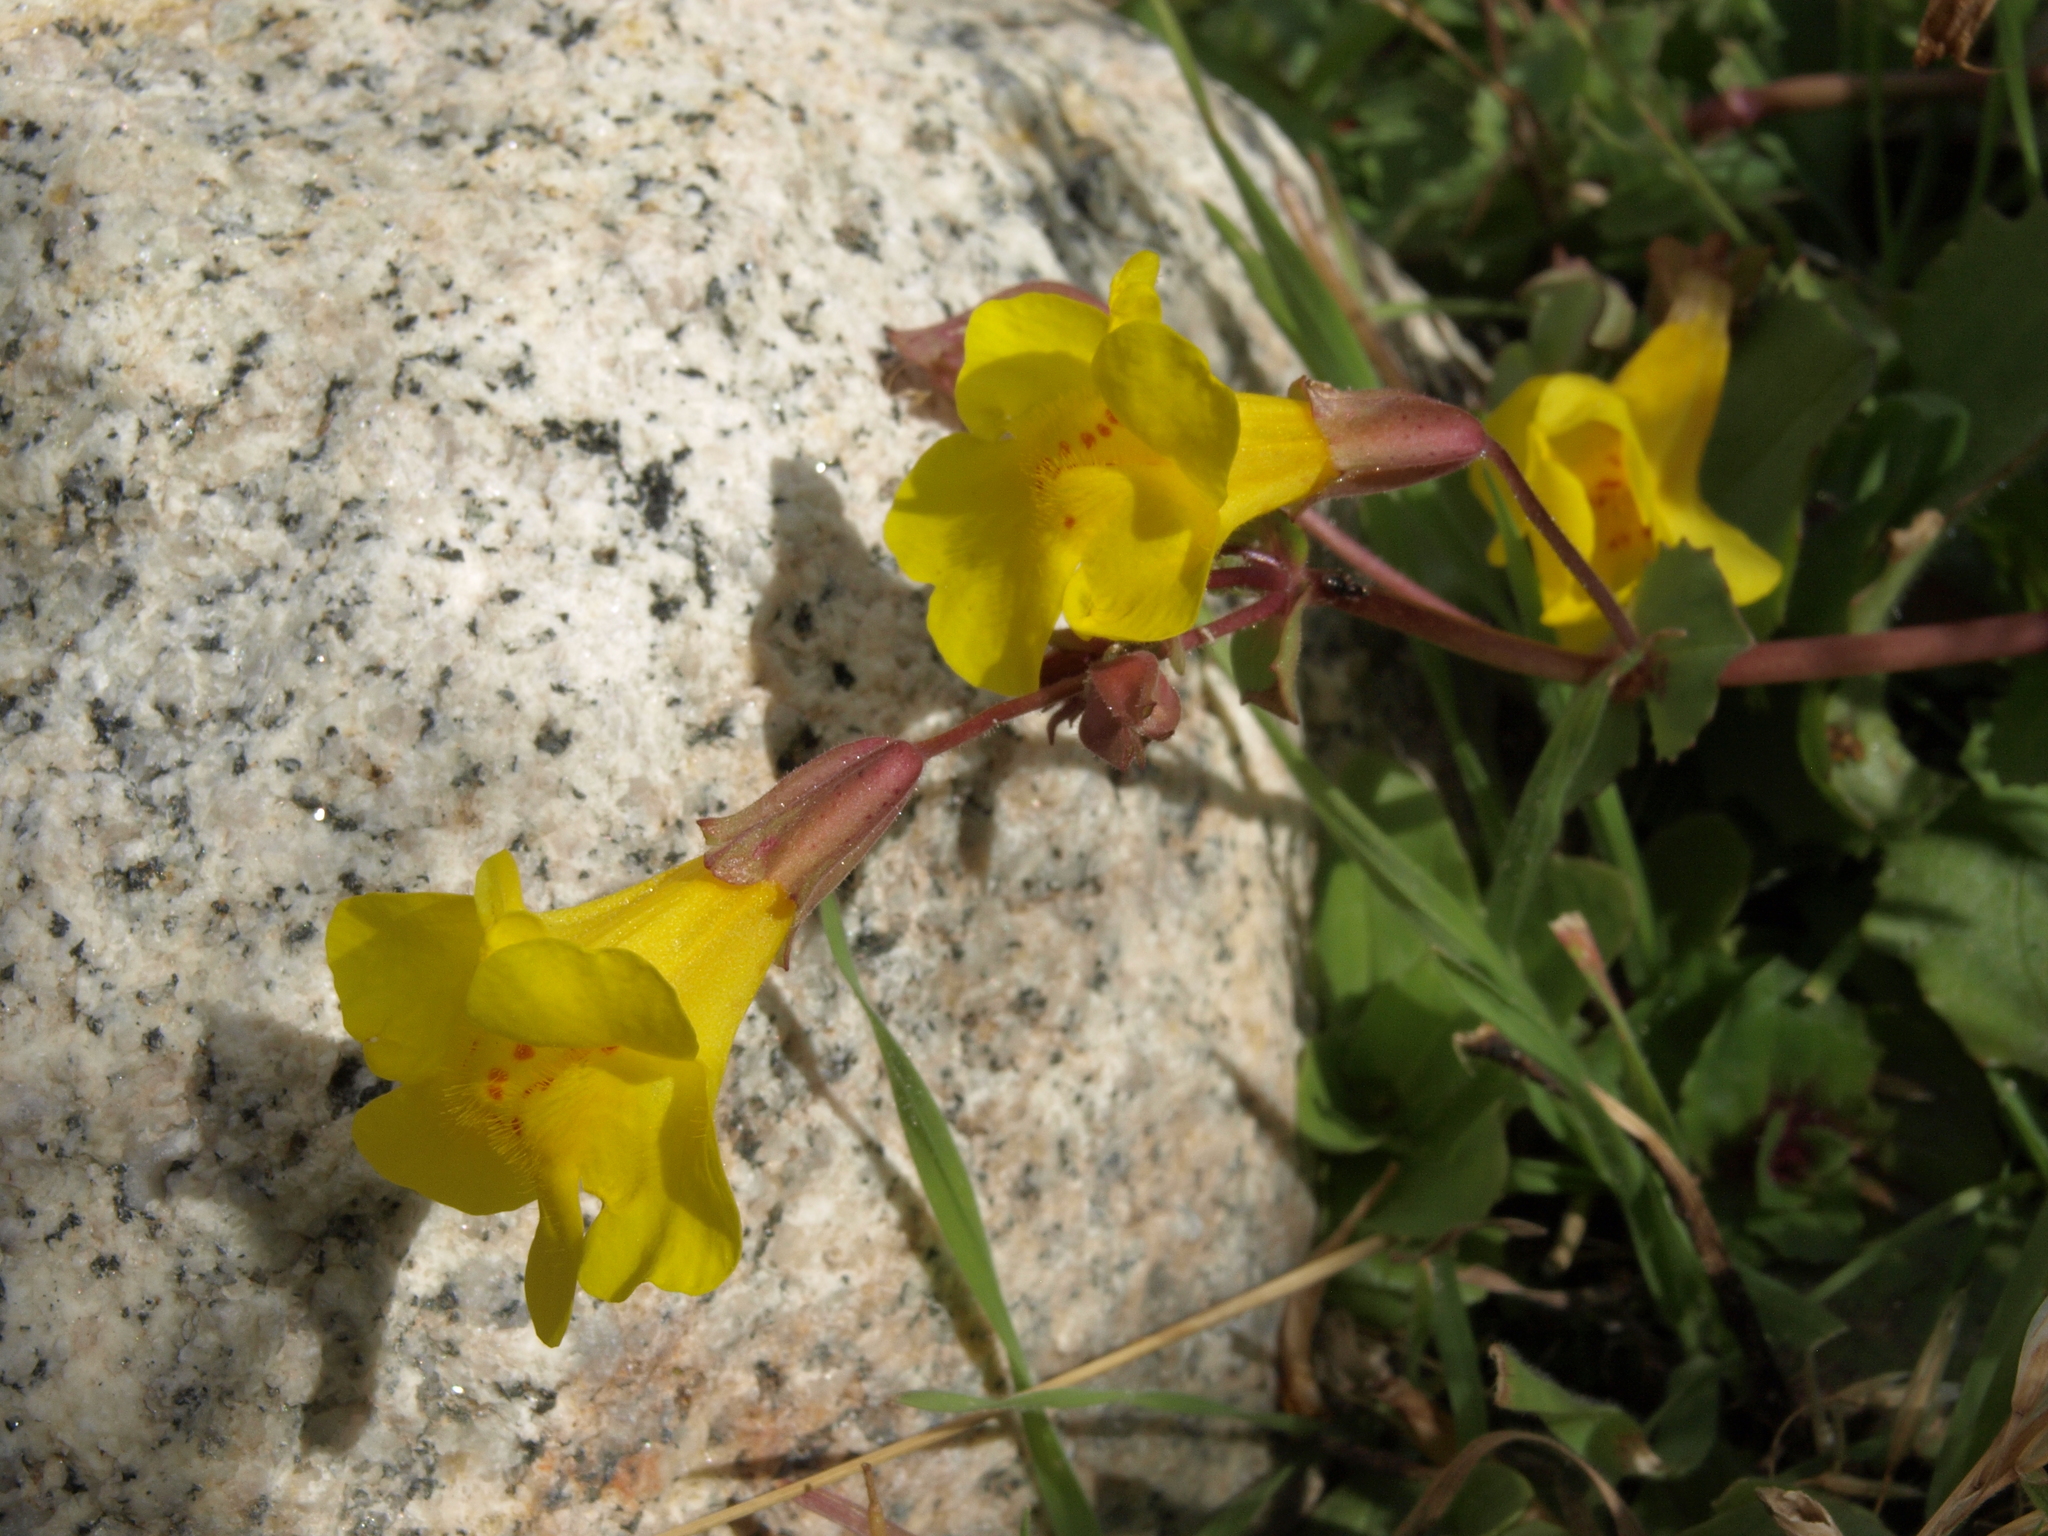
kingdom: Plantae
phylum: Tracheophyta
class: Magnoliopsida
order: Lamiales
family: Phrymaceae
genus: Erythranthe
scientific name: Erythranthe guttata
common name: Monkeyflower
